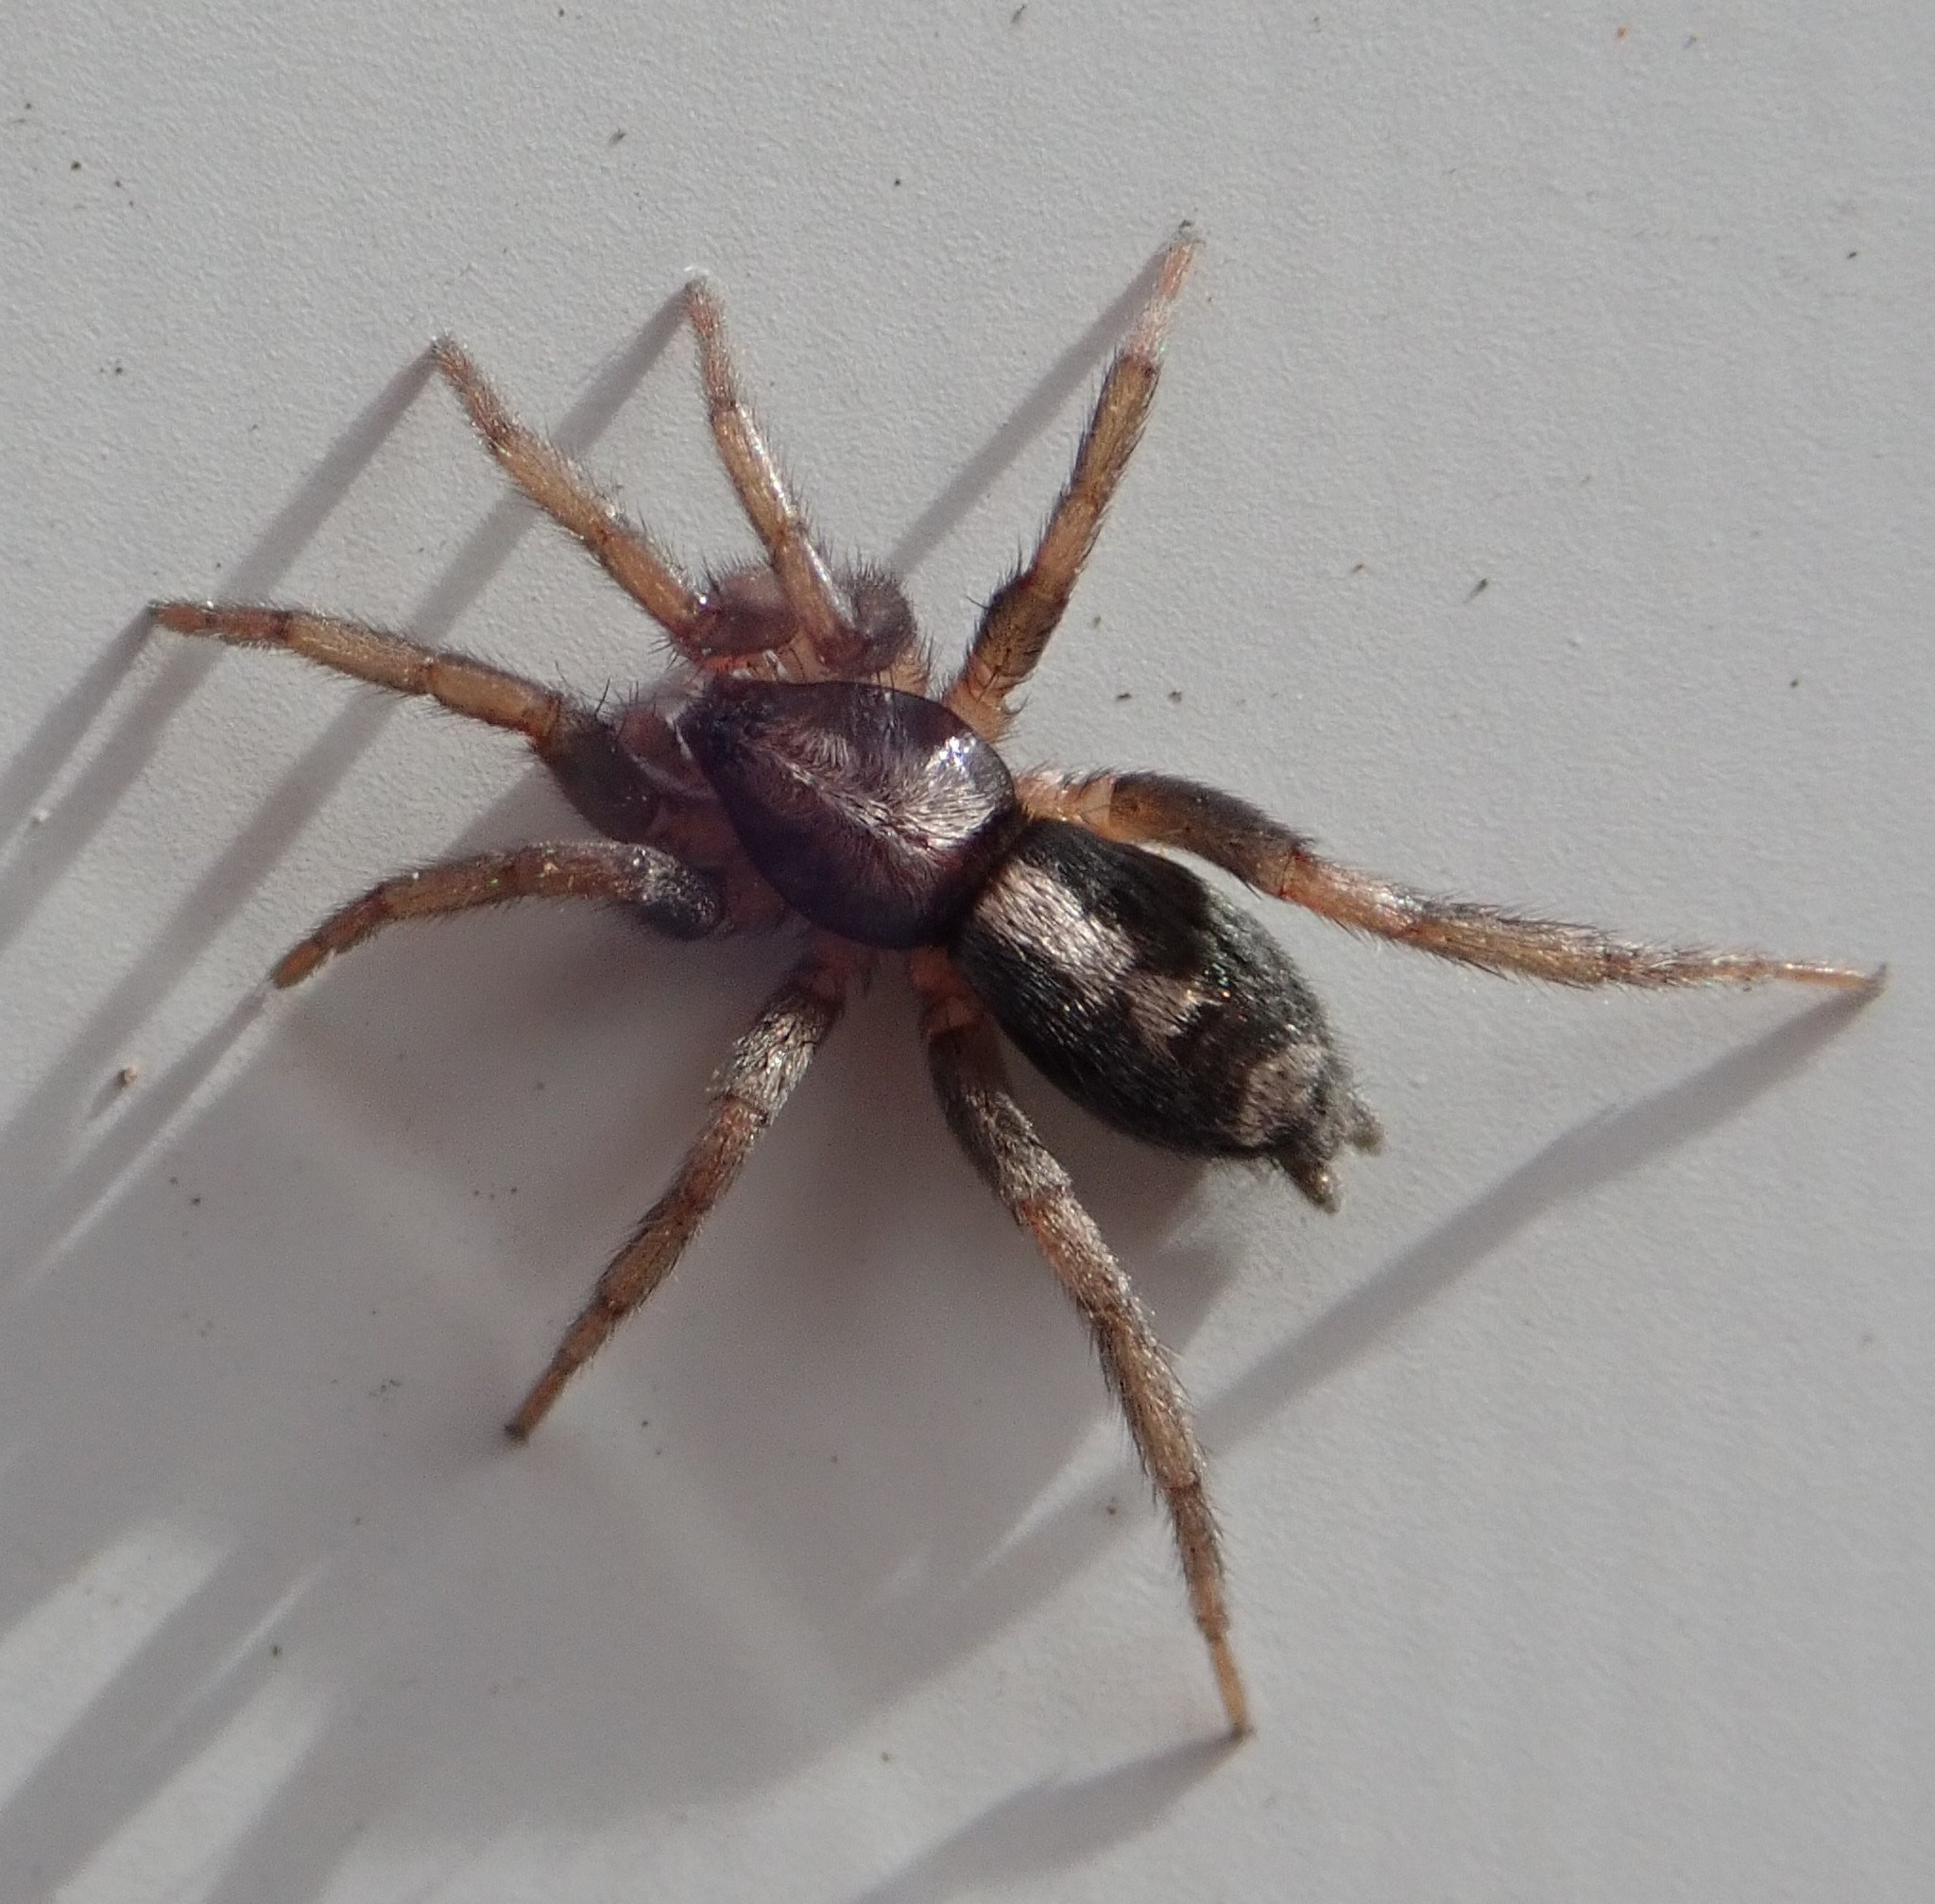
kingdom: Animalia
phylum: Arthropoda
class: Arachnida
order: Araneae
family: Gnaphosidae
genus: Herpyllus
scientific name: Herpyllus ecclesiasticus
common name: Eastern parson spider
